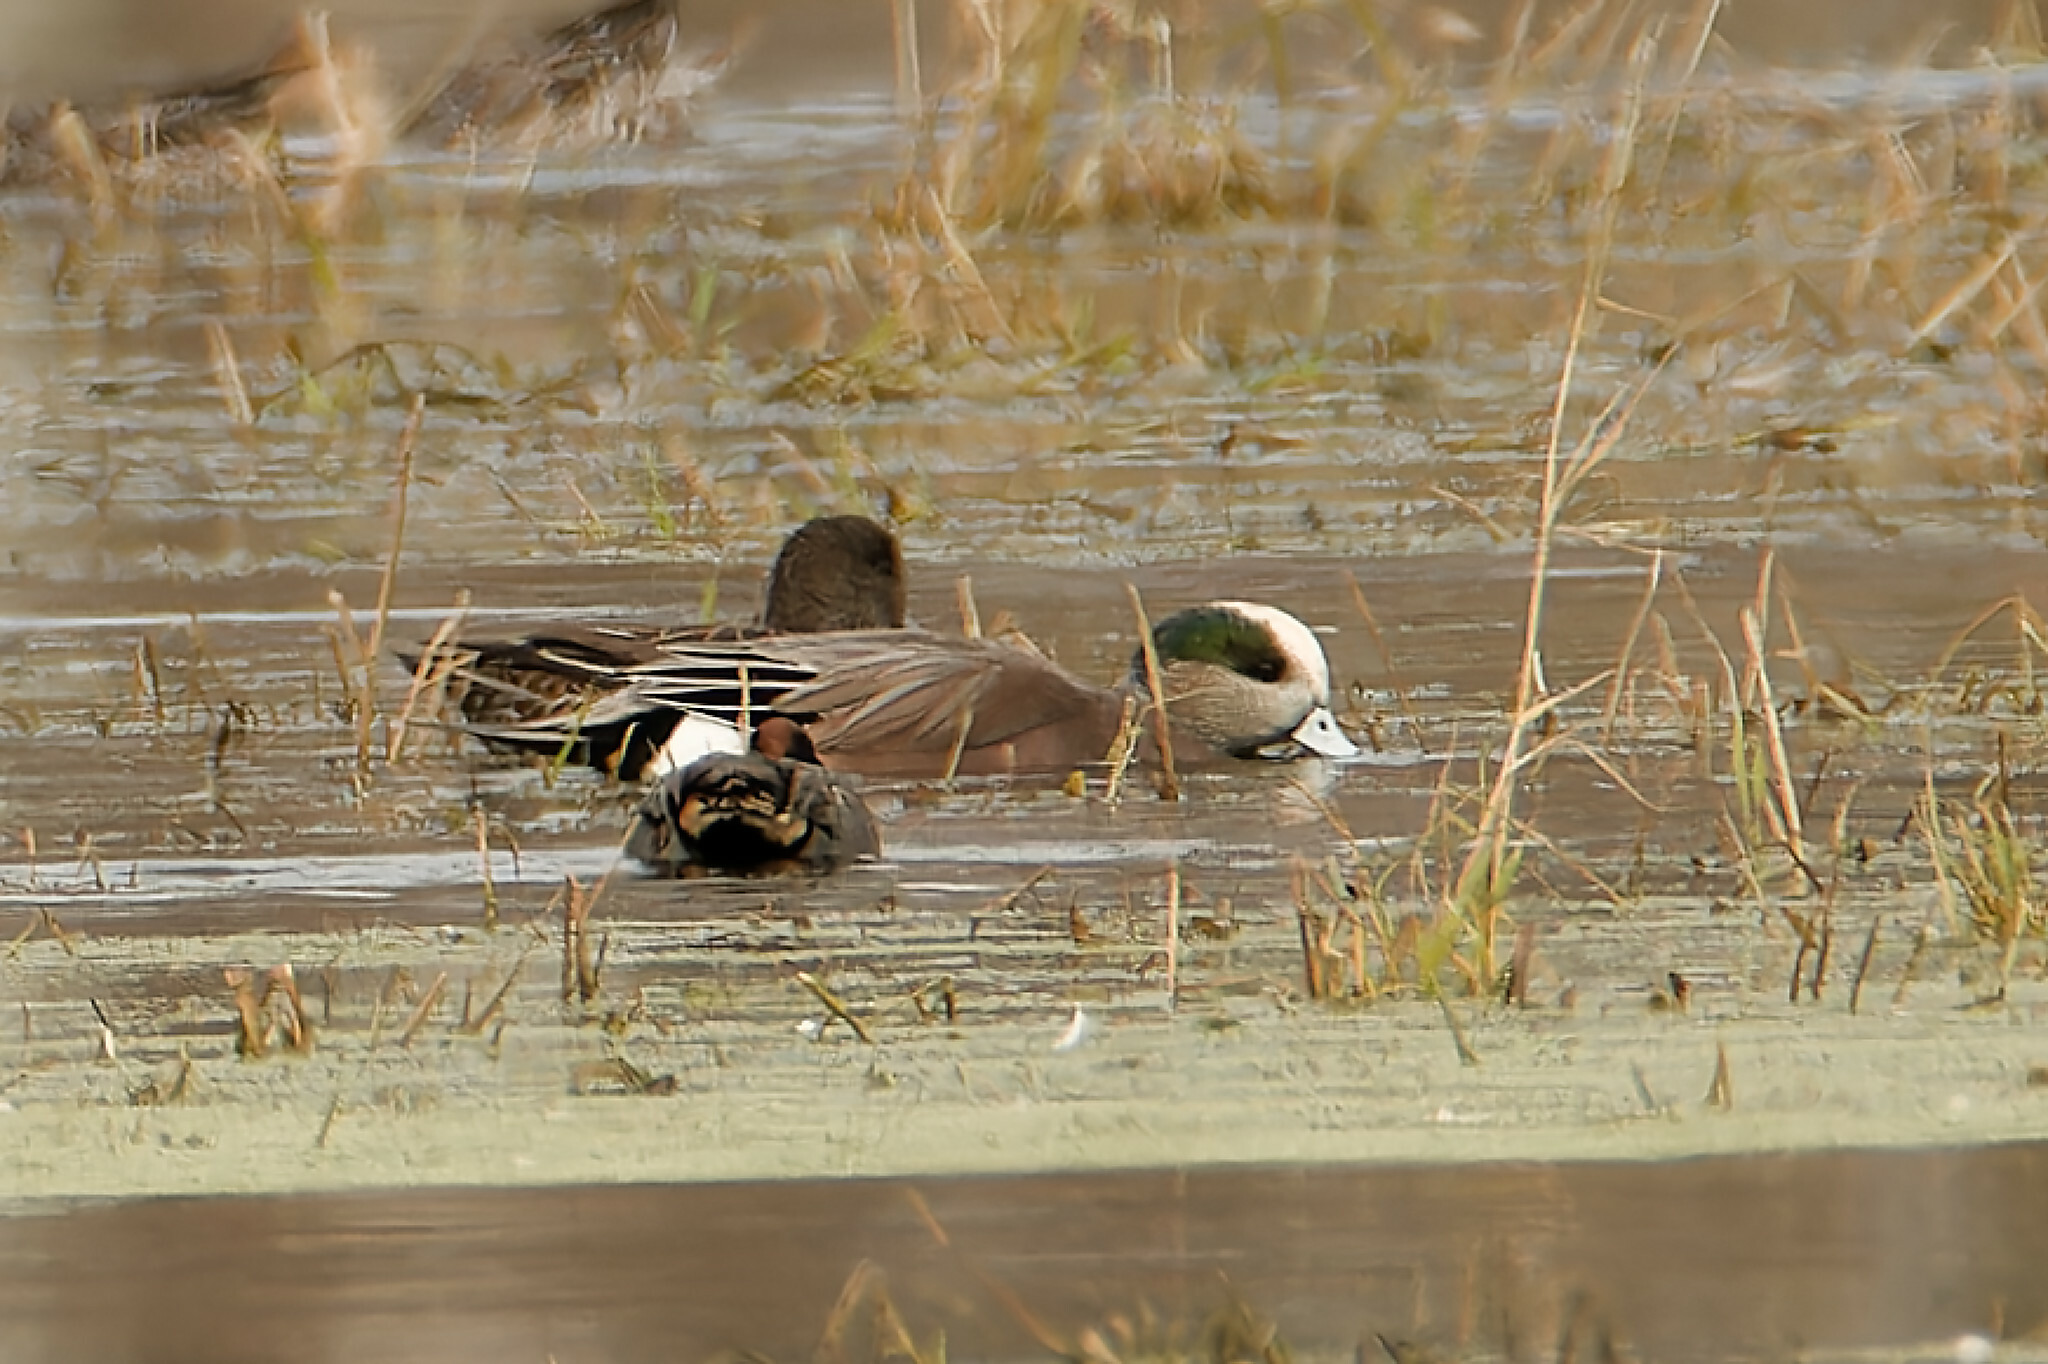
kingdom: Animalia
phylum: Chordata
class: Aves
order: Anseriformes
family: Anatidae
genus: Mareca
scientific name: Mareca americana
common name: American wigeon
